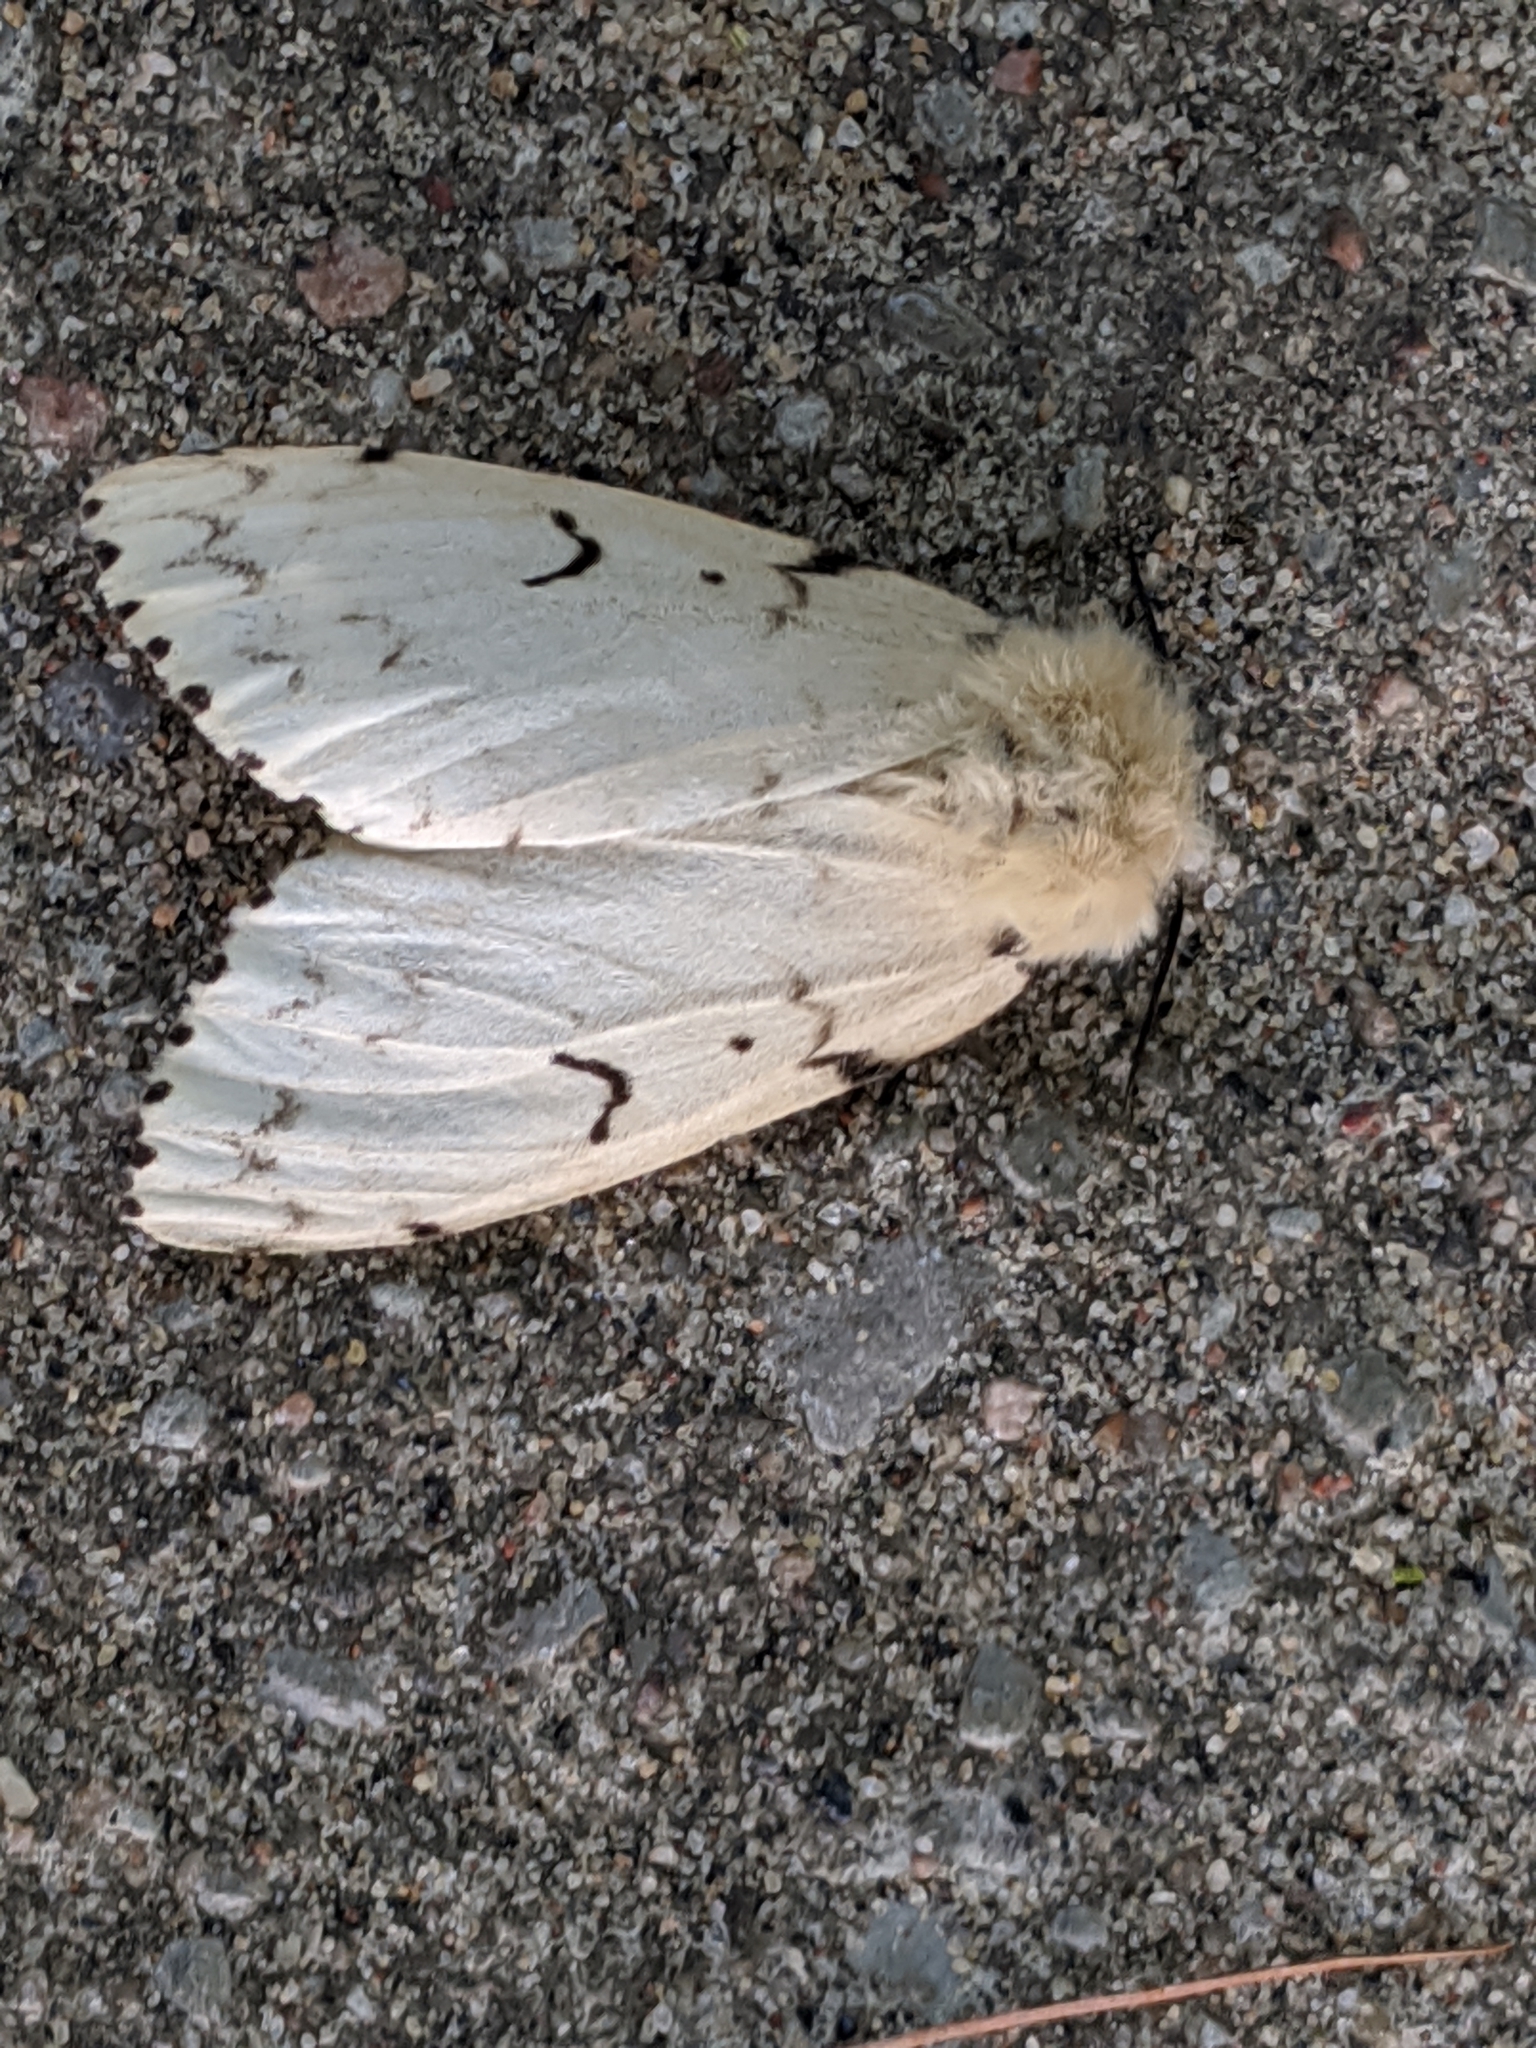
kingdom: Animalia
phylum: Arthropoda
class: Insecta
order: Lepidoptera
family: Erebidae
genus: Lymantria
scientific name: Lymantria dispar
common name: Gypsy moth
